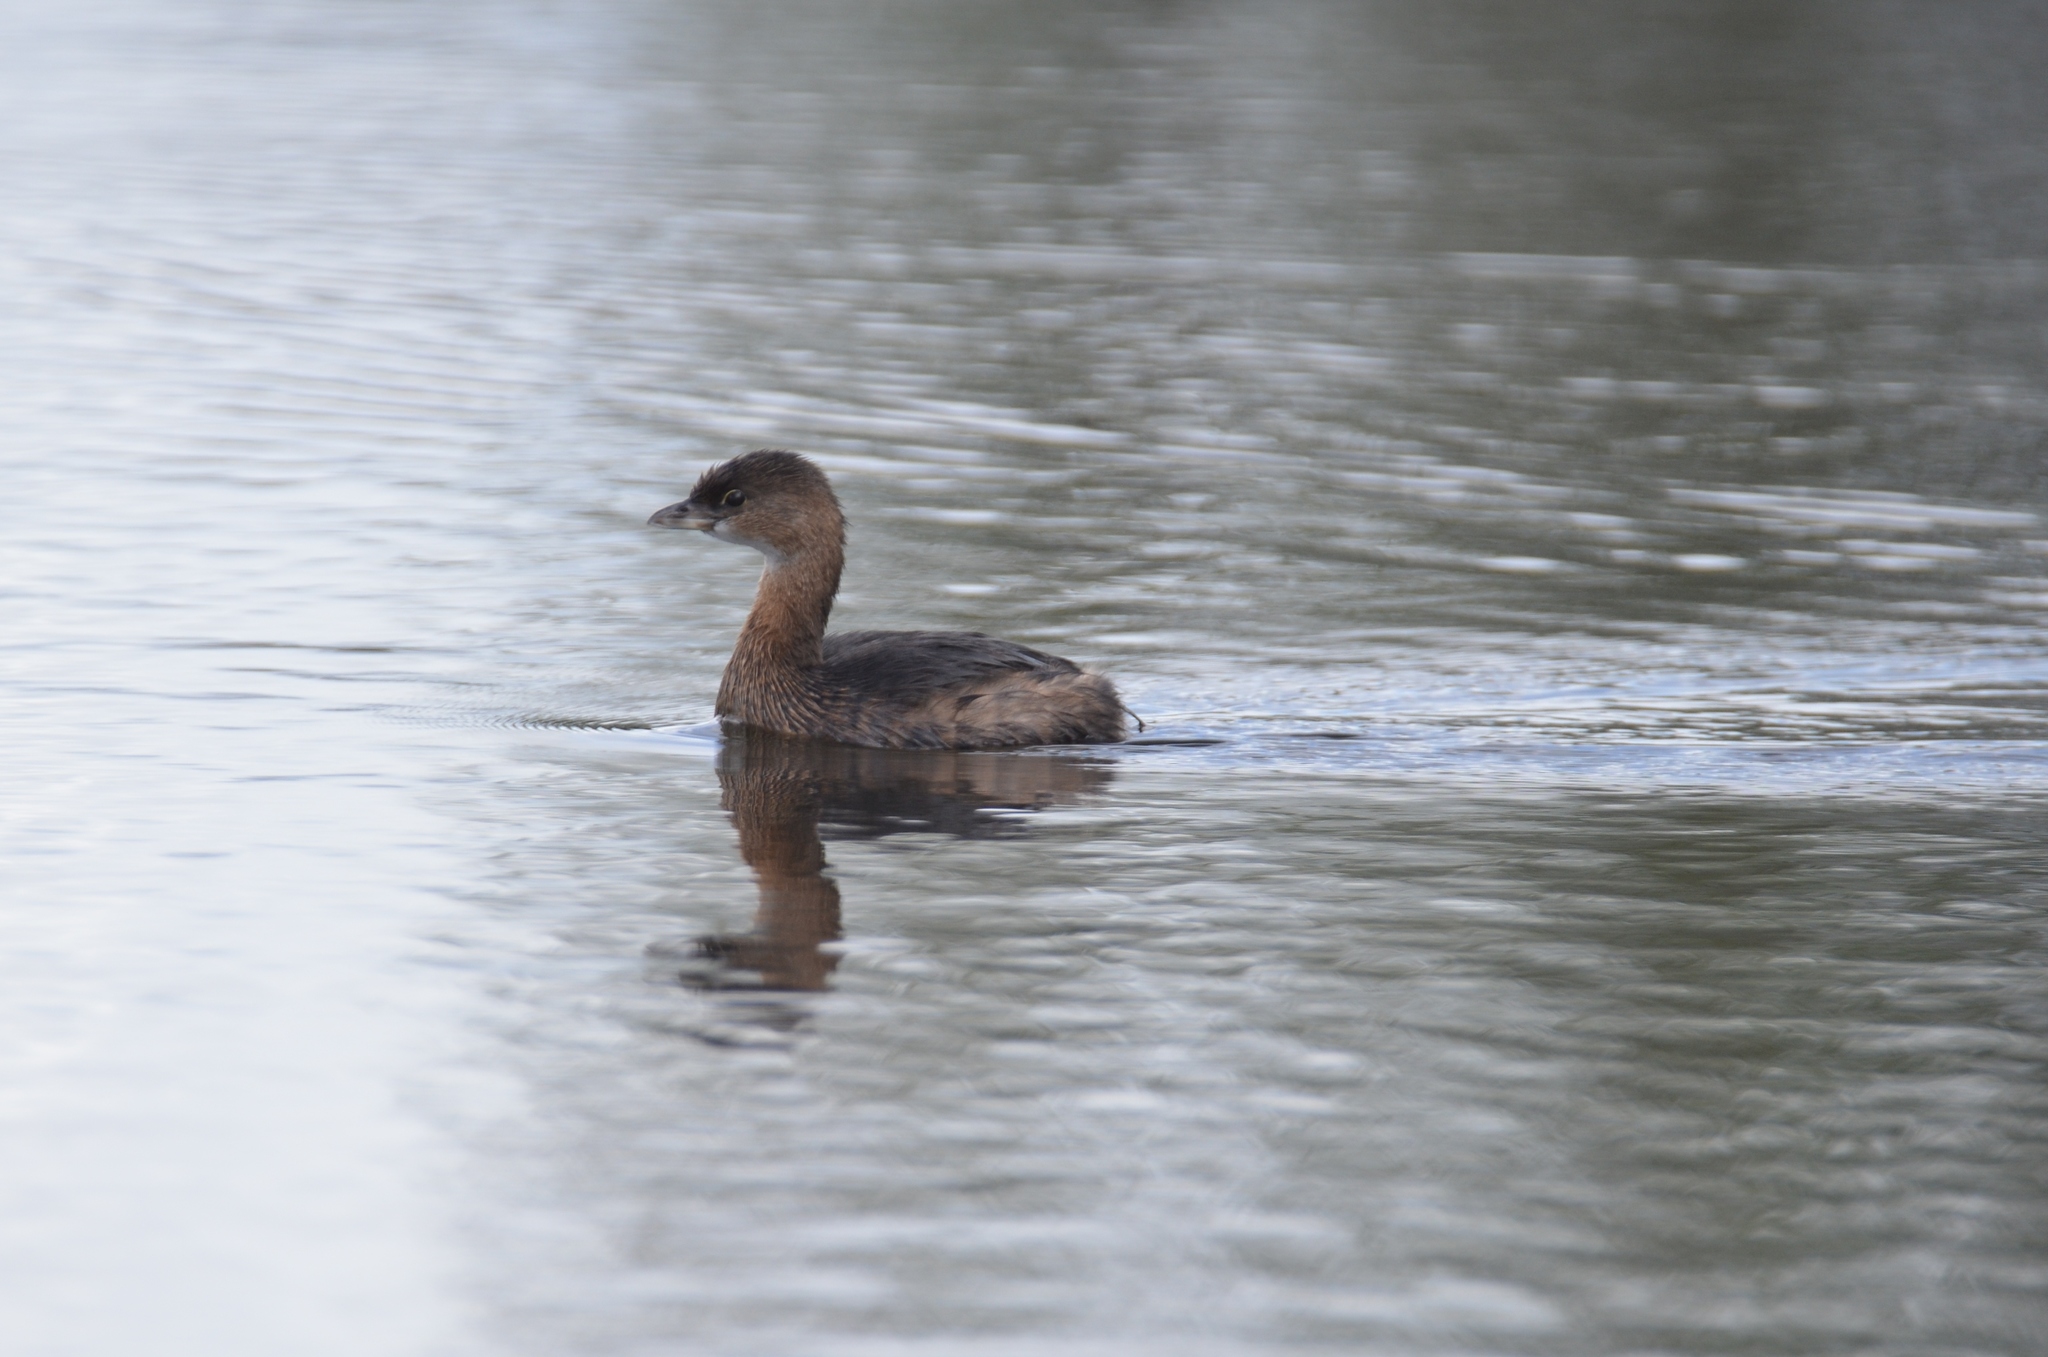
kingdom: Animalia
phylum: Chordata
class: Aves
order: Podicipediformes
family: Podicipedidae
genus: Podilymbus
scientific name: Podilymbus podiceps
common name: Pied-billed grebe
